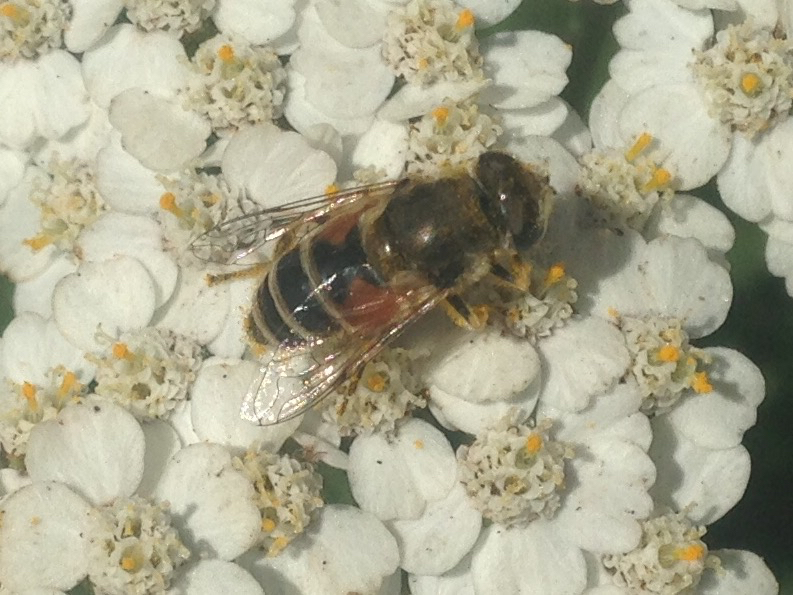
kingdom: Animalia
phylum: Arthropoda
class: Insecta
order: Diptera
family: Syrphidae
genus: Eristalis
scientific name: Eristalis arbustorum
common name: Hover fly
